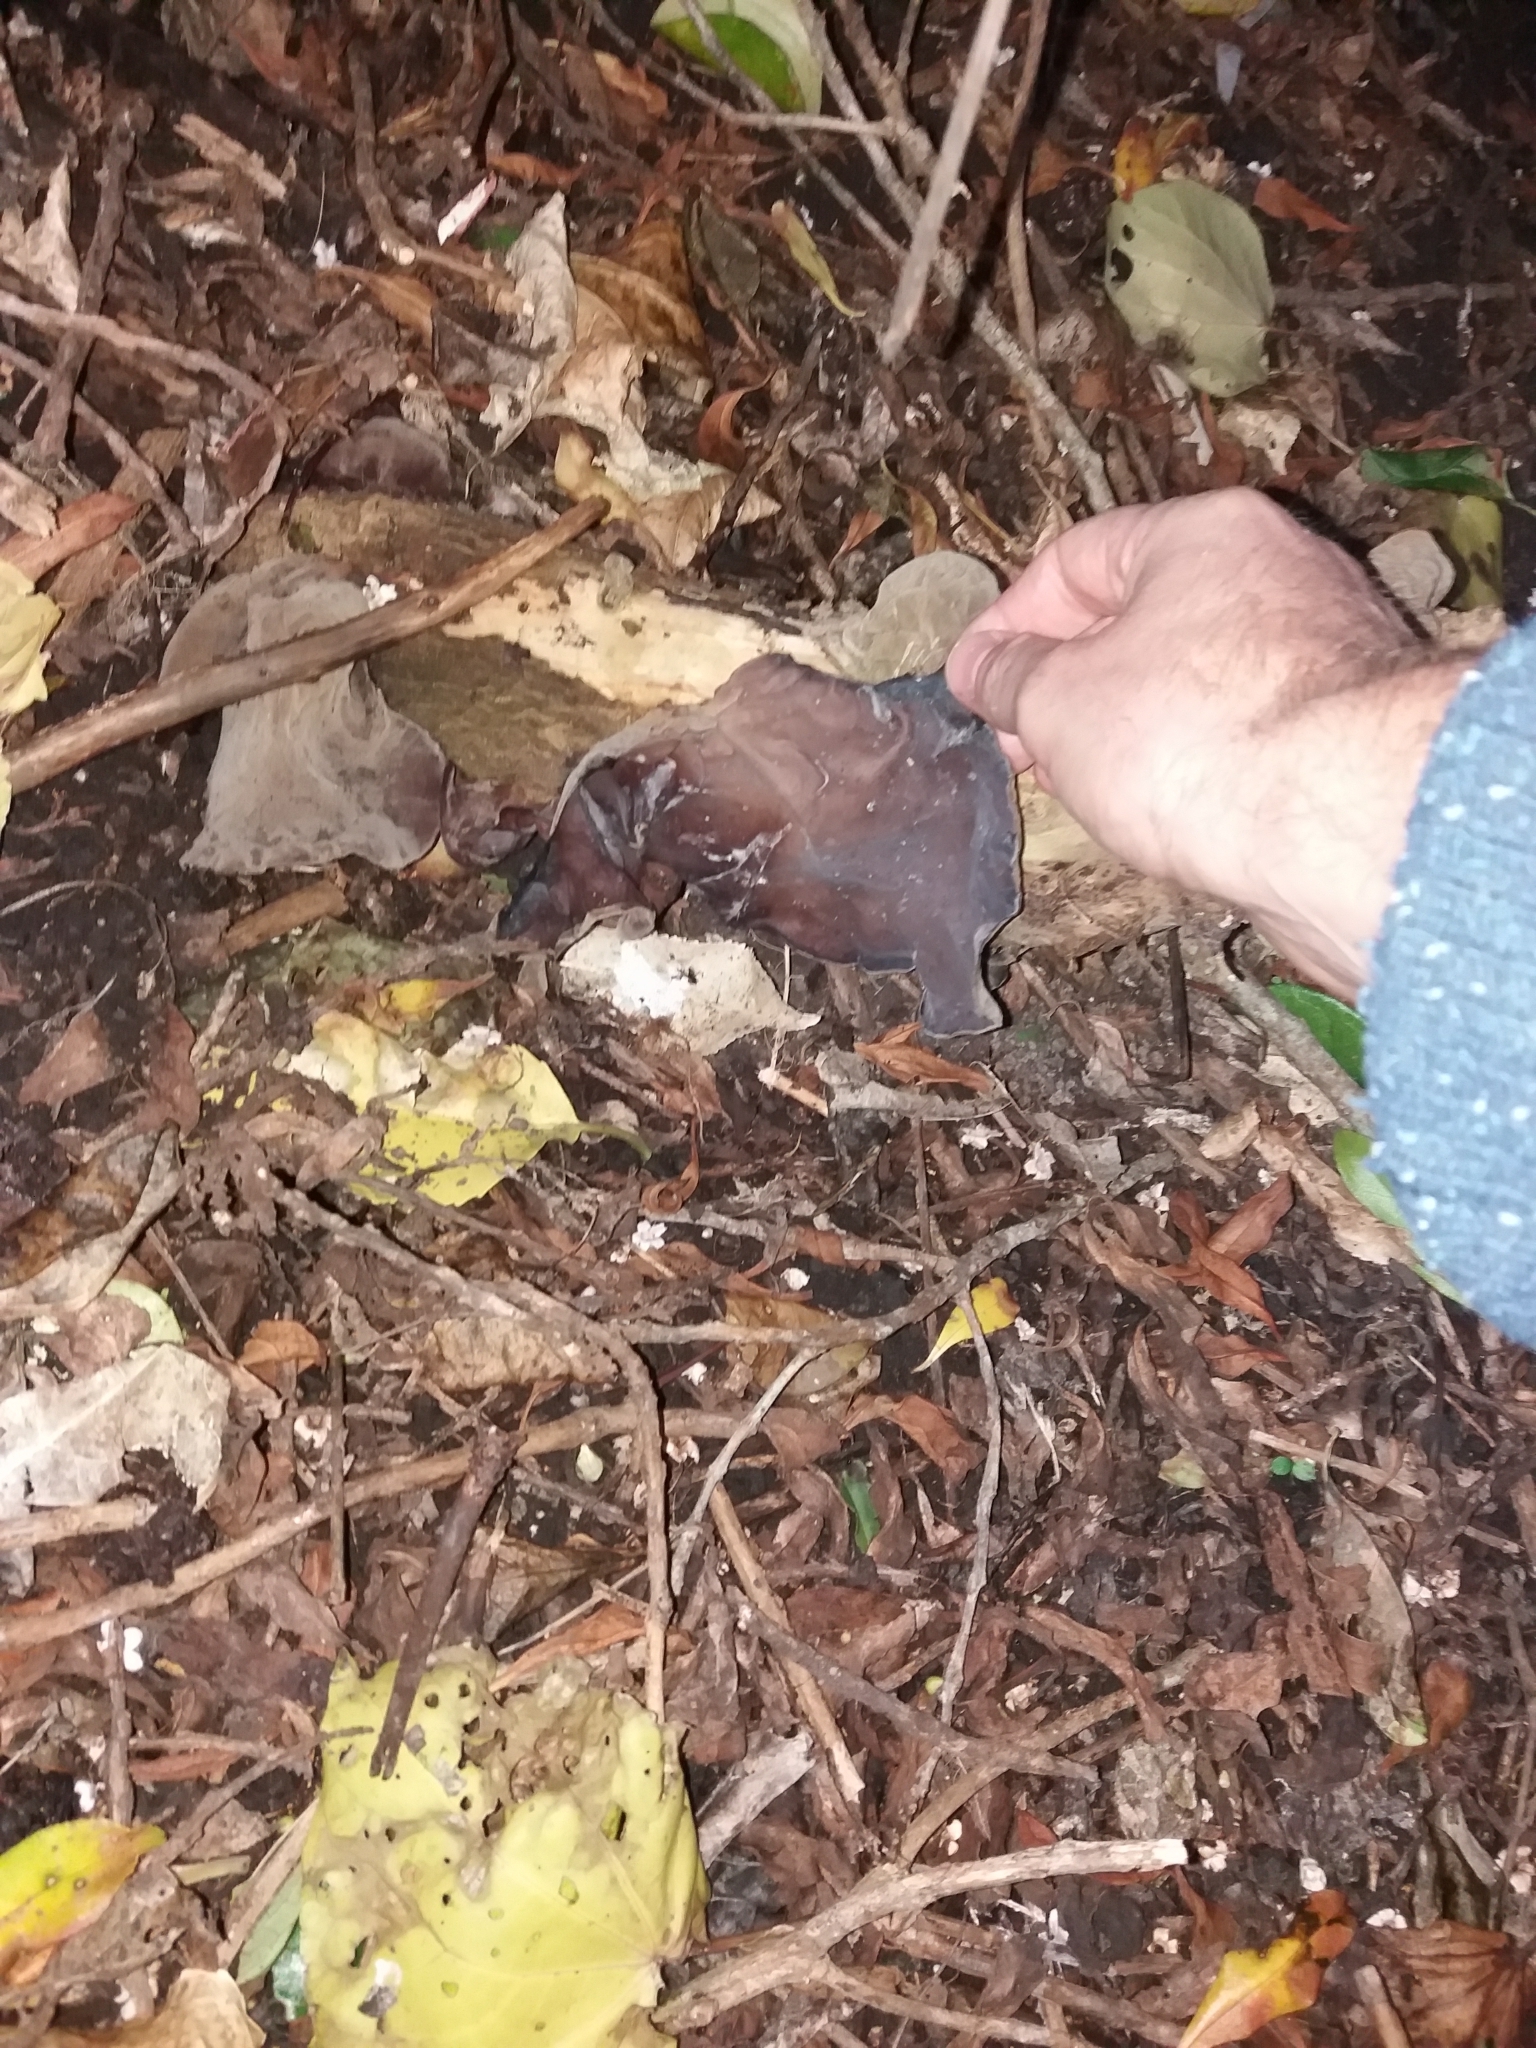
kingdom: Fungi
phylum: Basidiomycota
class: Agaricomycetes
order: Auriculariales
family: Auriculariaceae
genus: Auricularia
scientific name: Auricularia cornea
